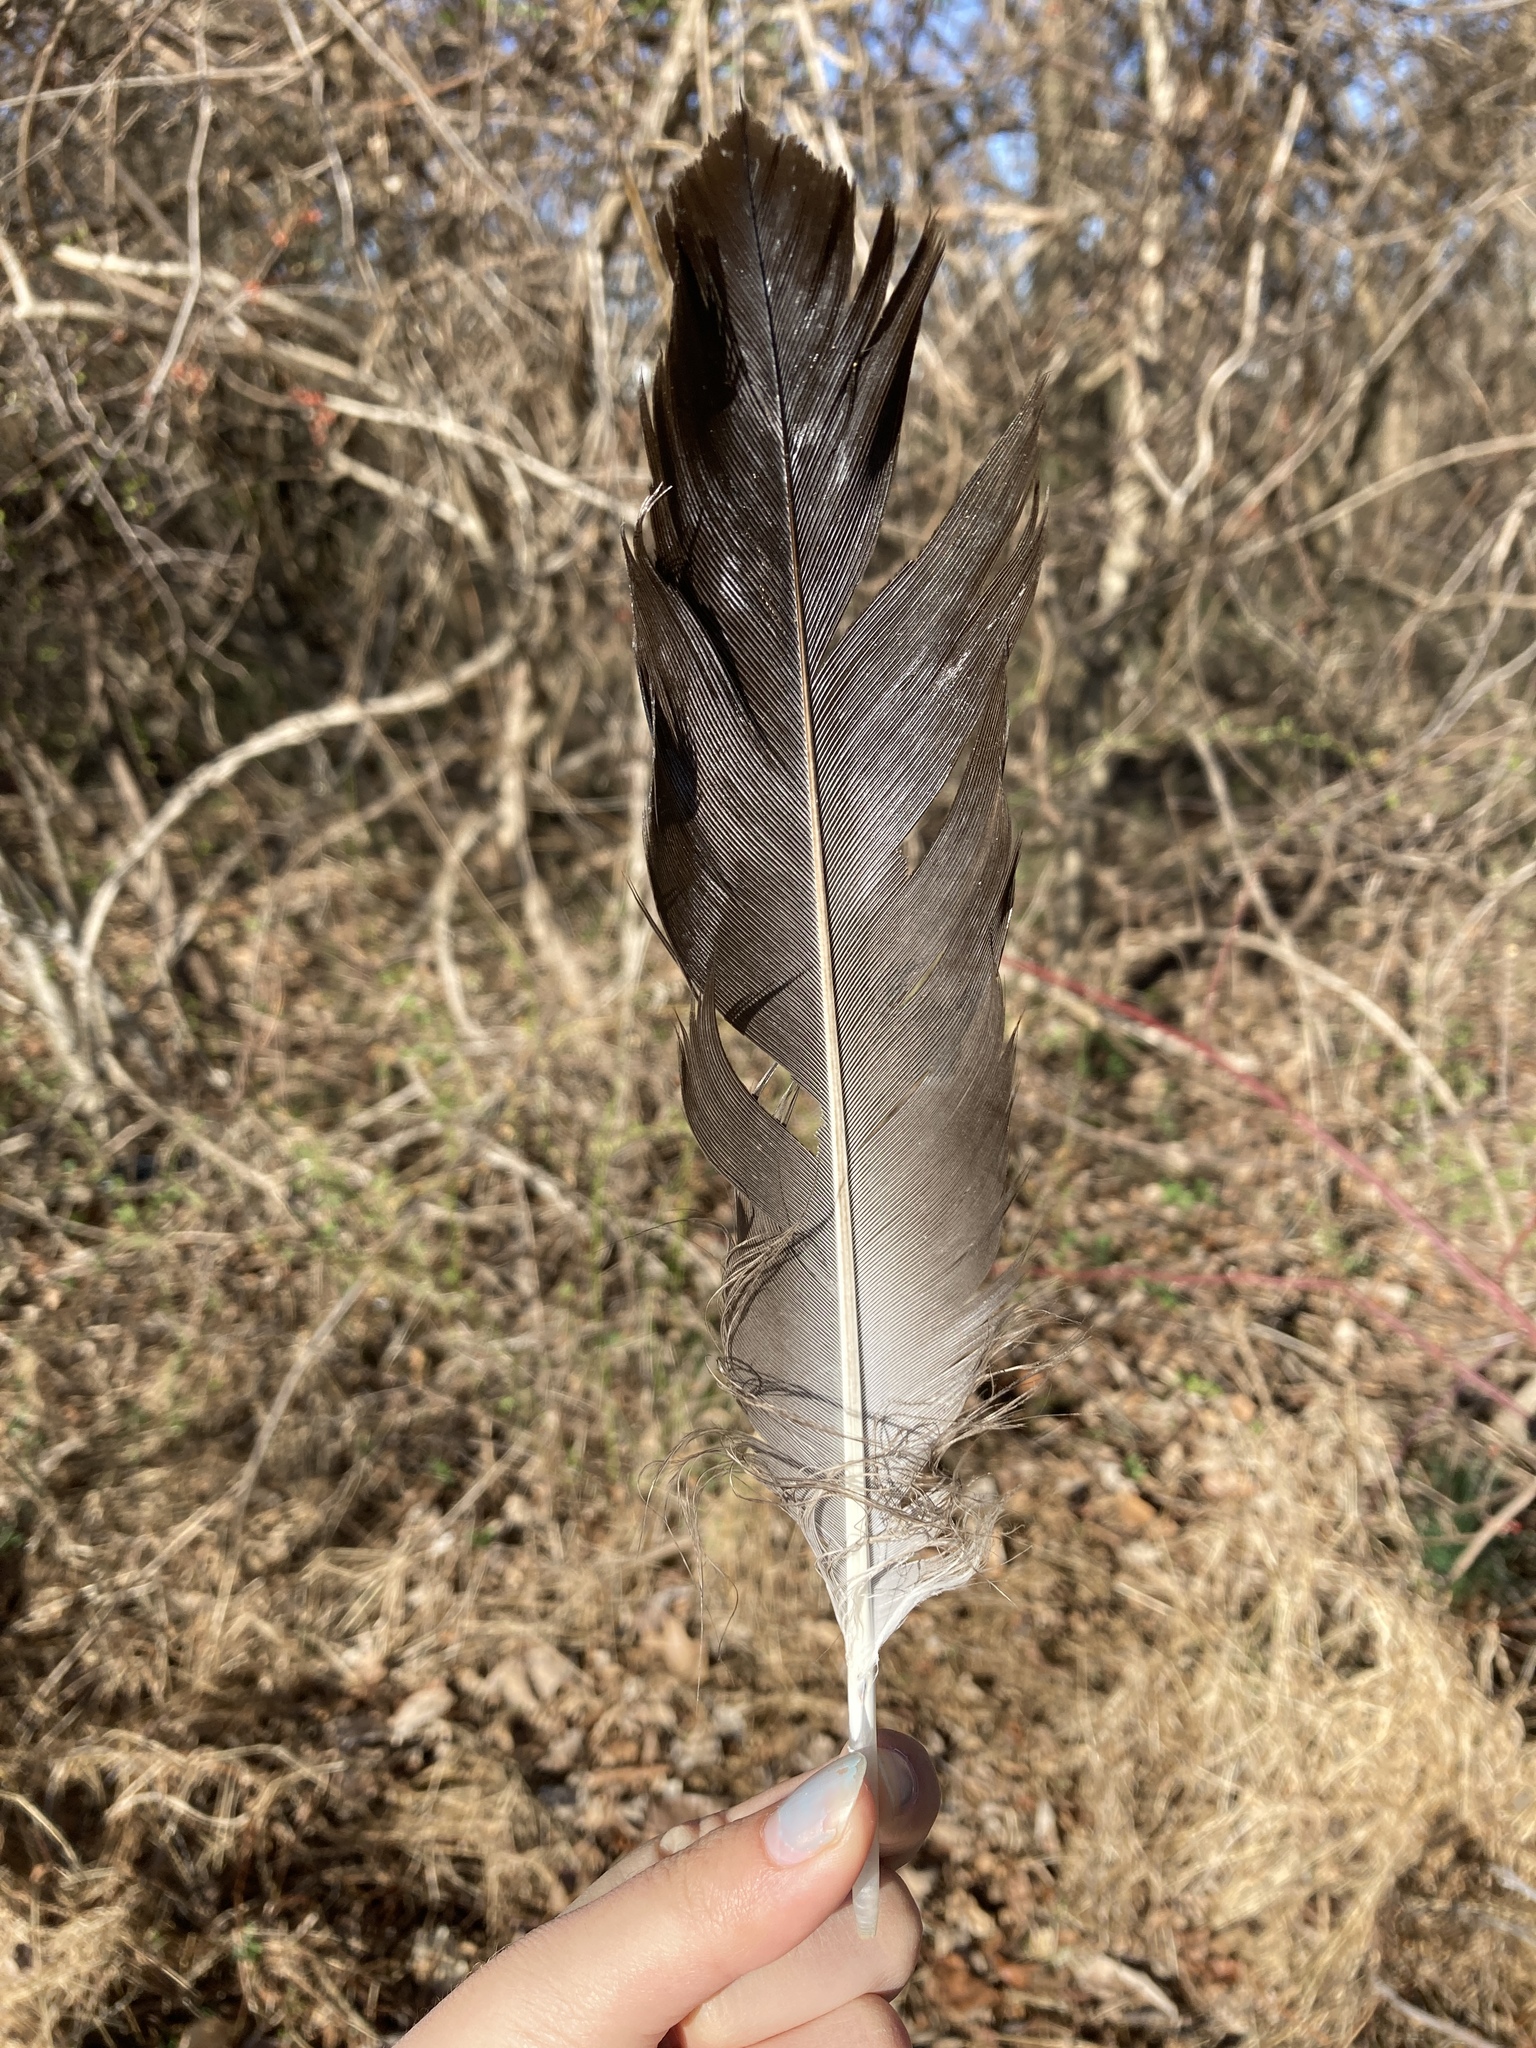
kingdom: Animalia
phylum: Chordata
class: Aves
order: Accipitriformes
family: Cathartidae
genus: Coragyps
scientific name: Coragyps atratus
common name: Black vulture
